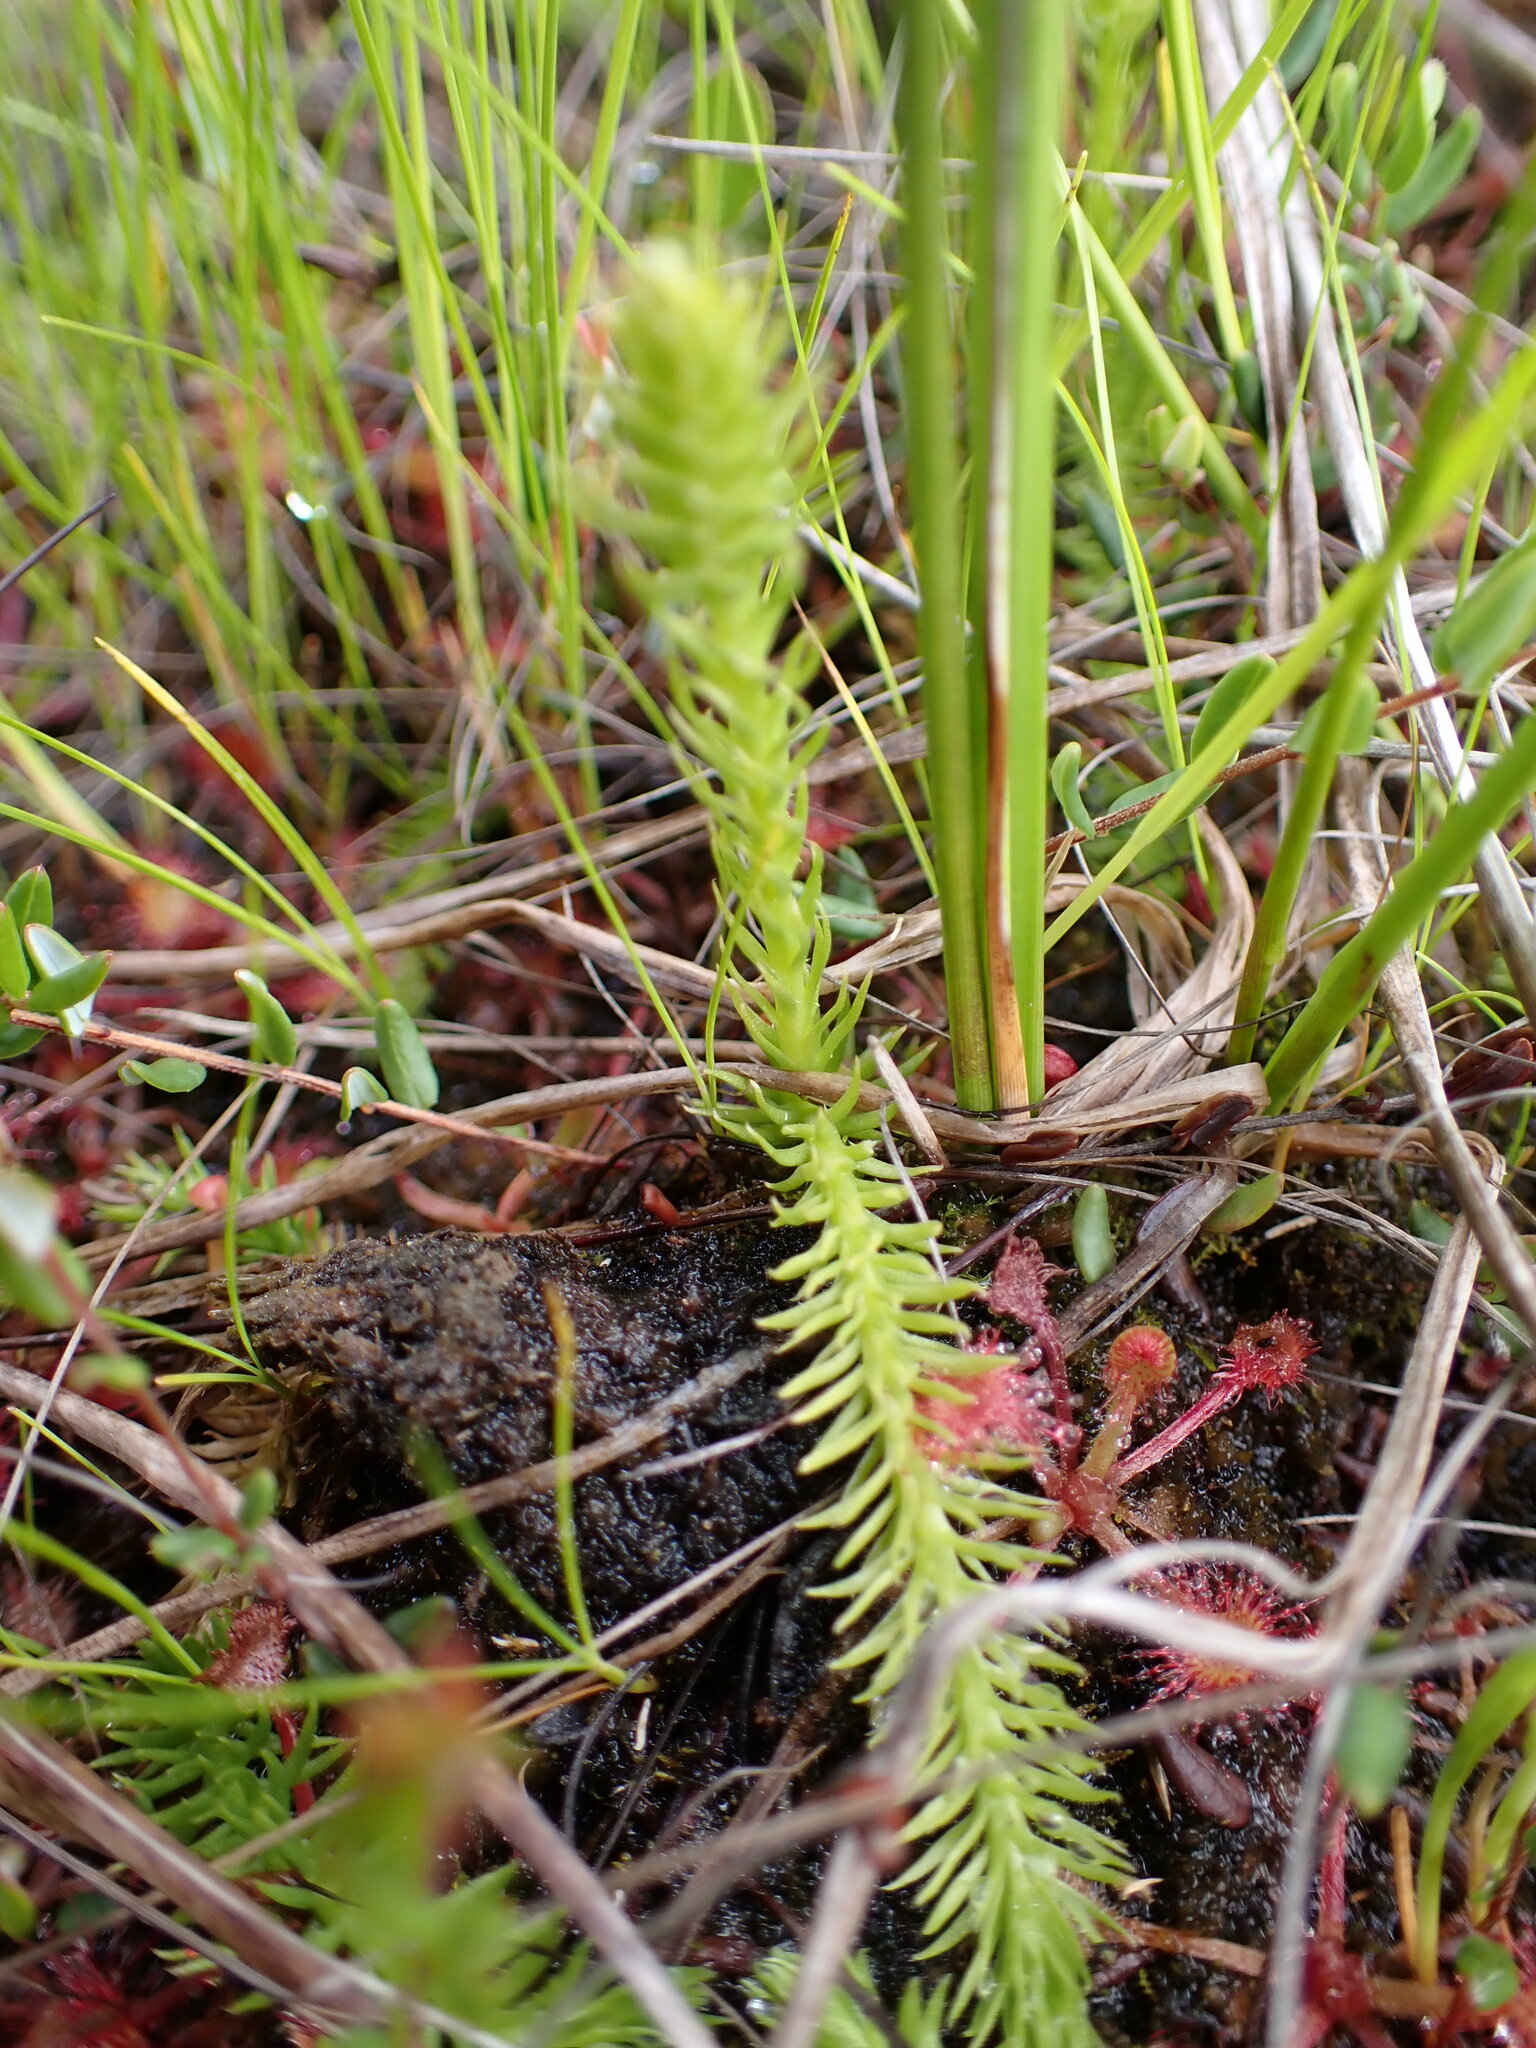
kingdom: Plantae
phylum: Tracheophyta
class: Lycopodiopsida
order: Lycopodiales
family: Lycopodiaceae
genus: Lycopodiella
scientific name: Lycopodiella inundata
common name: Marsh clubmoss
